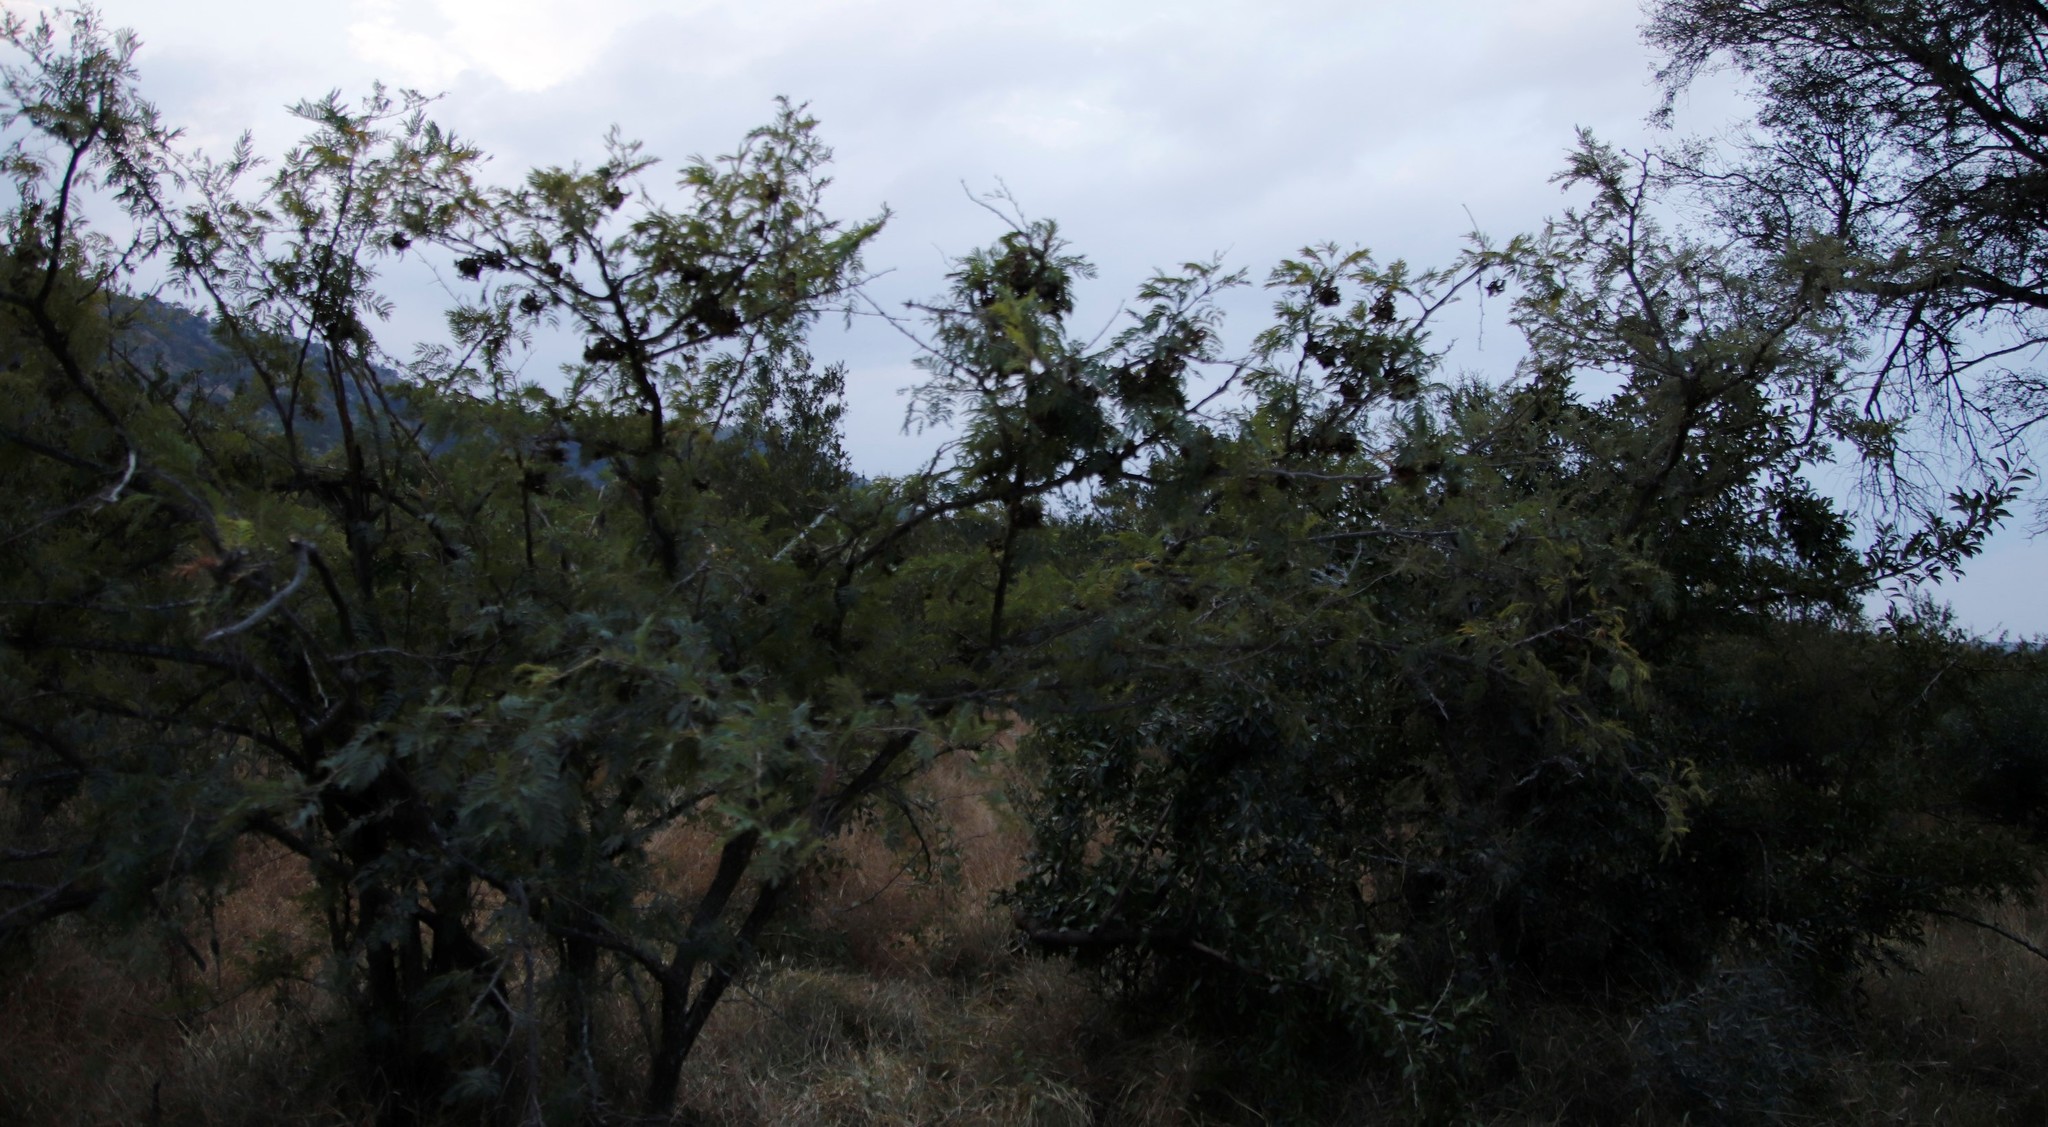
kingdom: Plantae
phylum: Tracheophyta
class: Magnoliopsida
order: Fabales
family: Fabaceae
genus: Dichrostachys
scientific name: Dichrostachys cinerea
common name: Sicklebush
